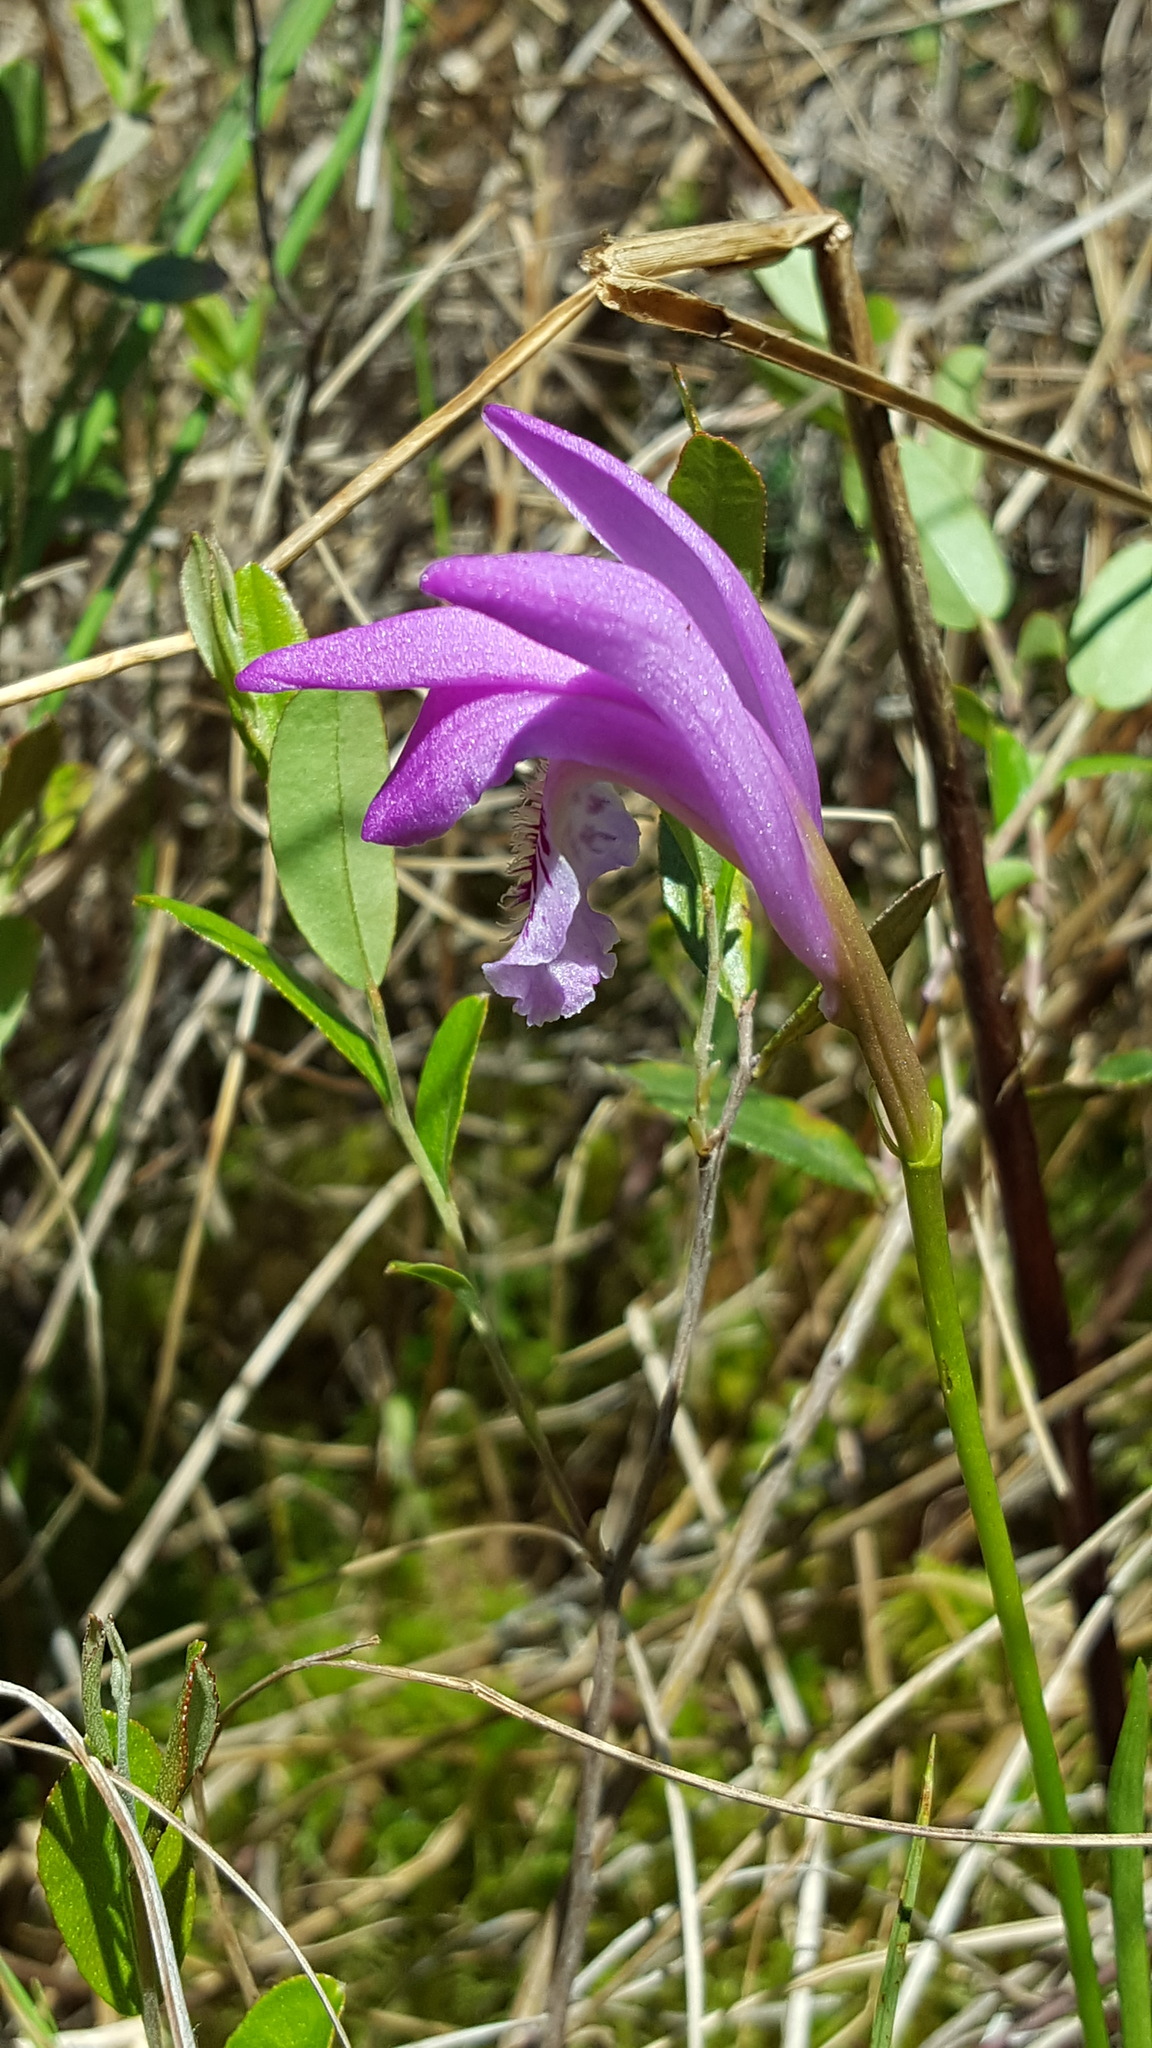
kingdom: Plantae
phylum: Tracheophyta
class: Liliopsida
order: Asparagales
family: Orchidaceae
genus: Arethusa
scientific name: Arethusa bulbosa
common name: Arethusa
